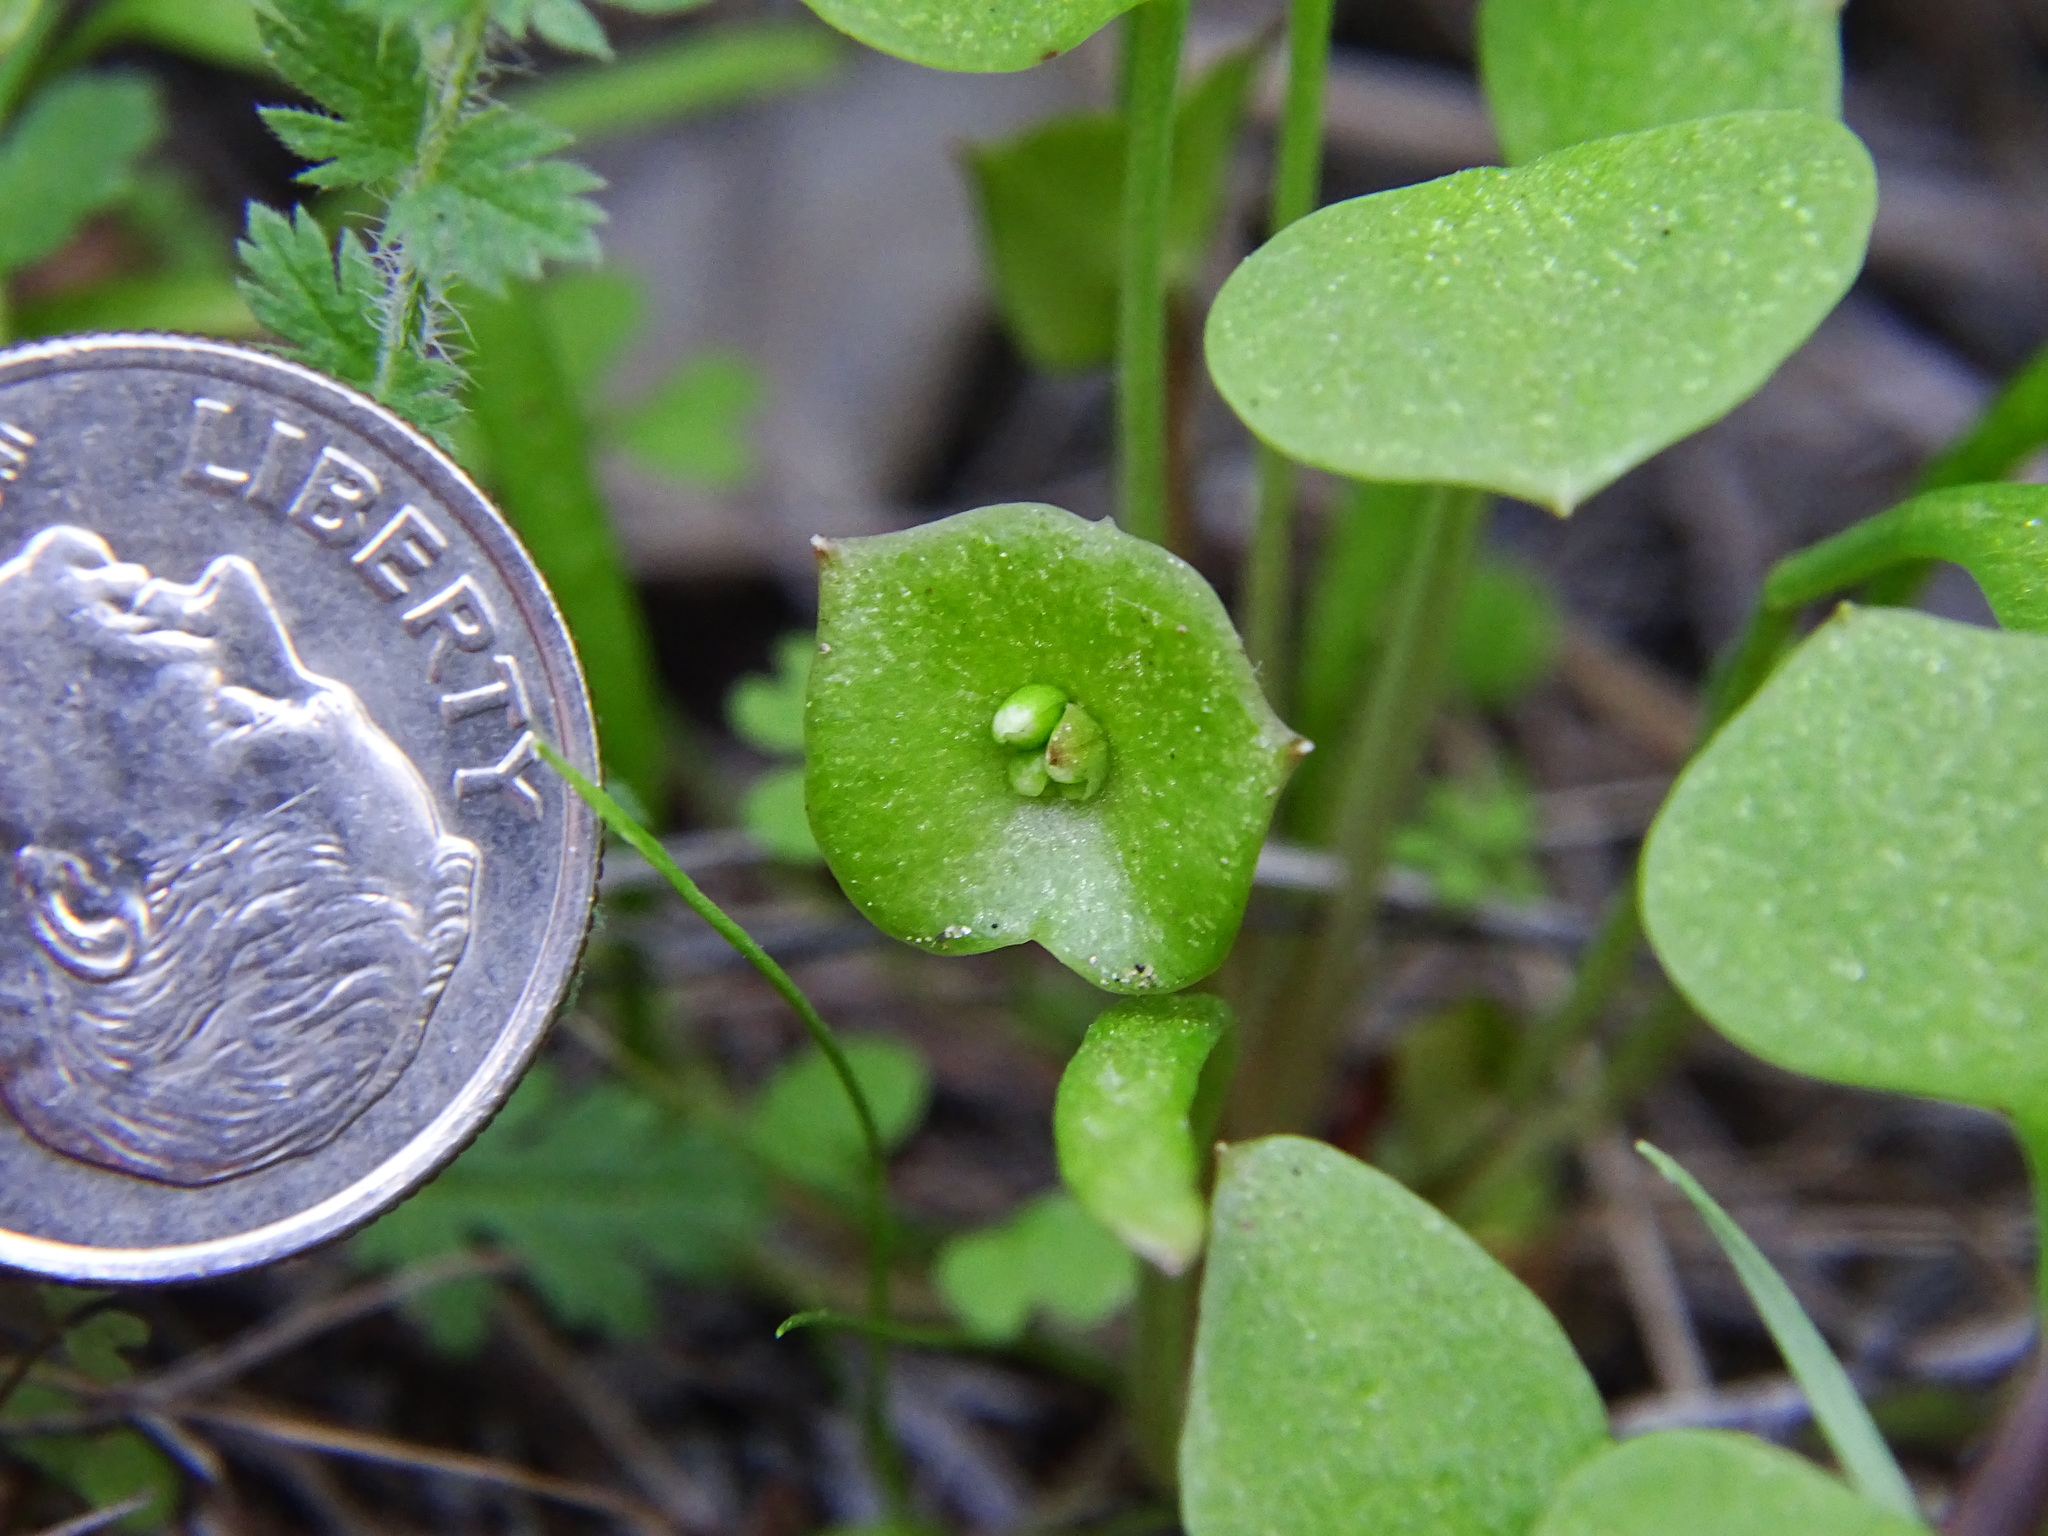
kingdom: Plantae
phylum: Tracheophyta
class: Magnoliopsida
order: Caryophyllales
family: Montiaceae
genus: Claytonia
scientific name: Claytonia perfoliata
